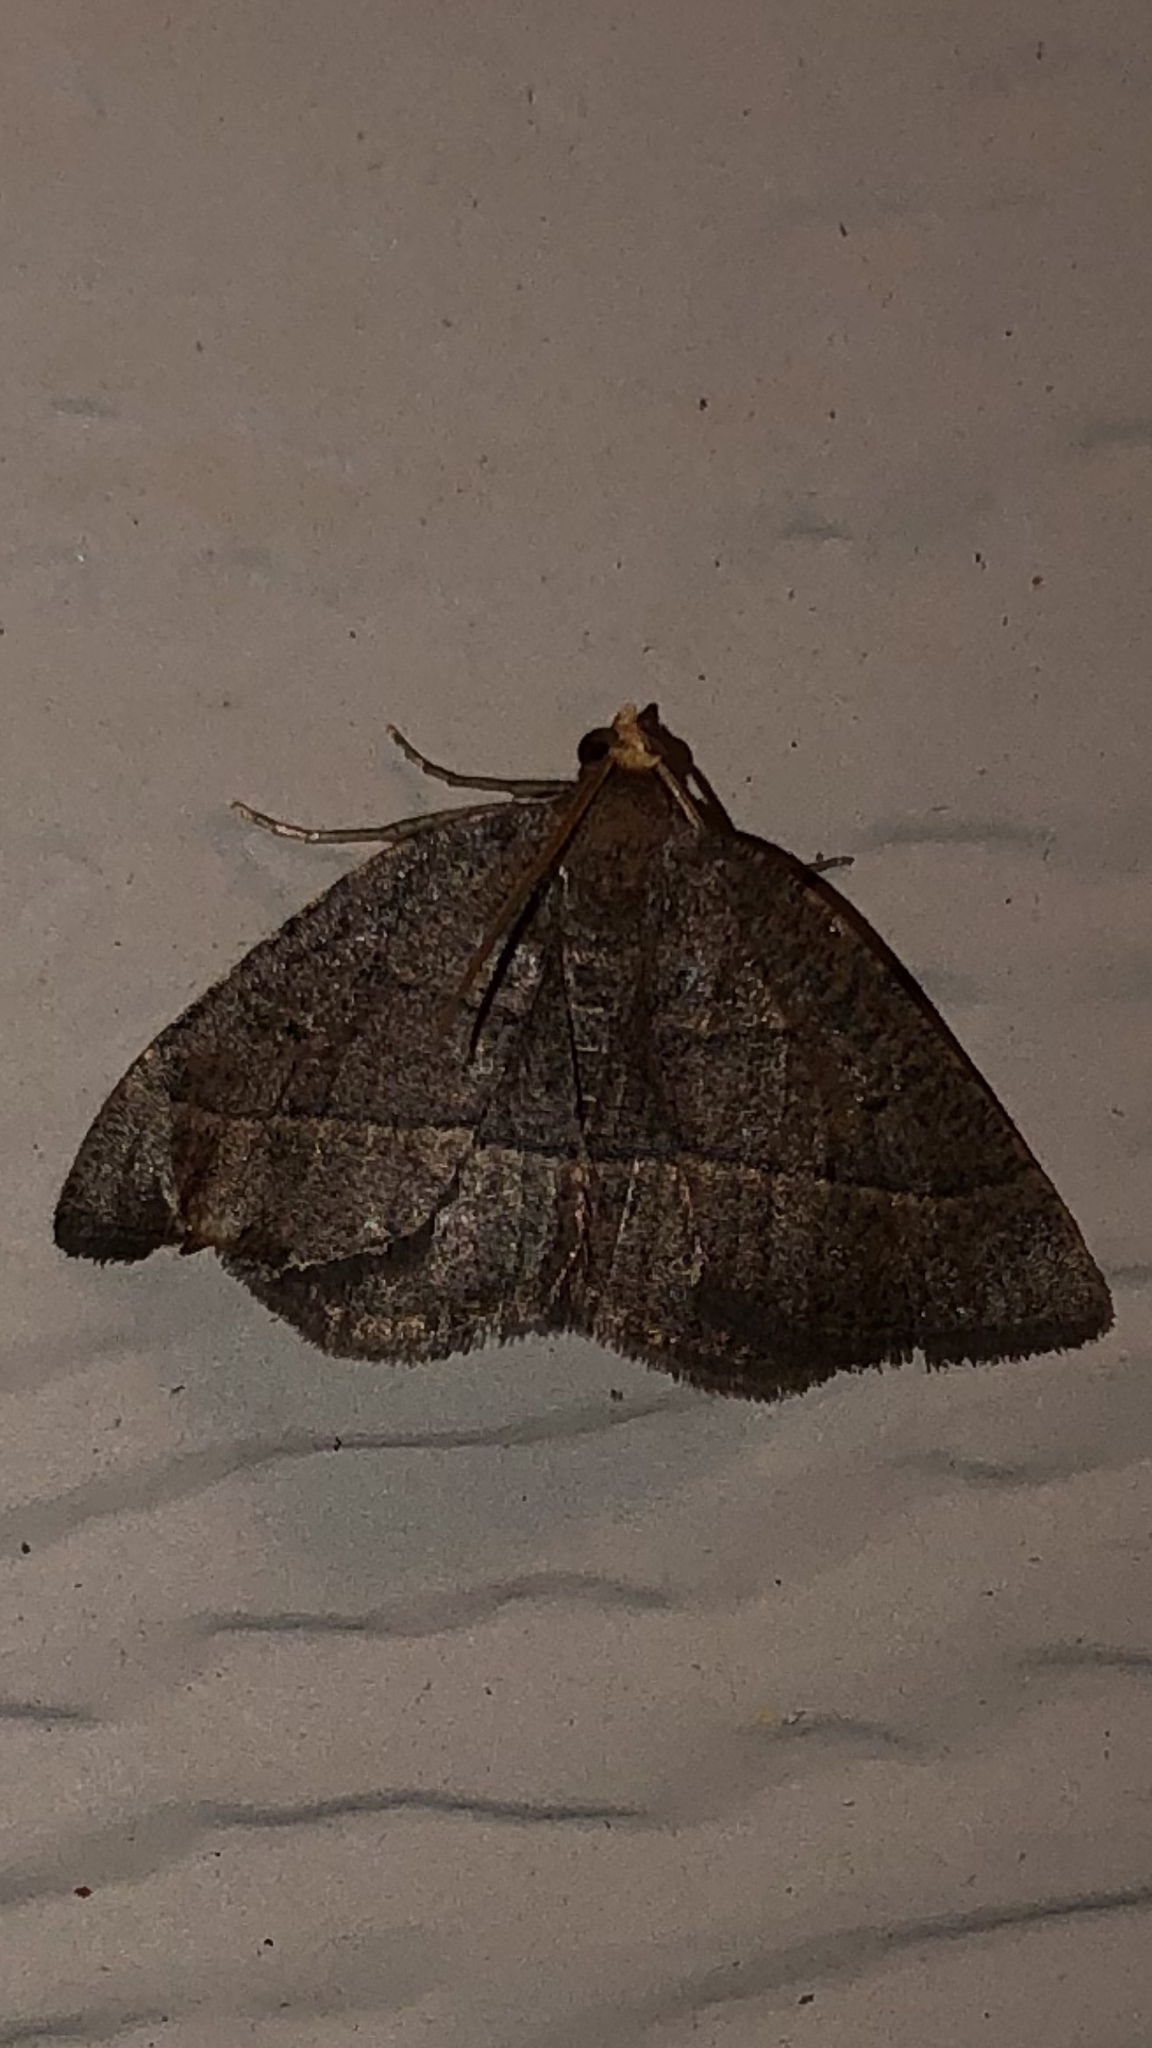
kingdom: Animalia
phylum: Arthropoda
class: Insecta
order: Lepidoptera
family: Geometridae
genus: Episemasia
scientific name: Episemasia cervinaria
